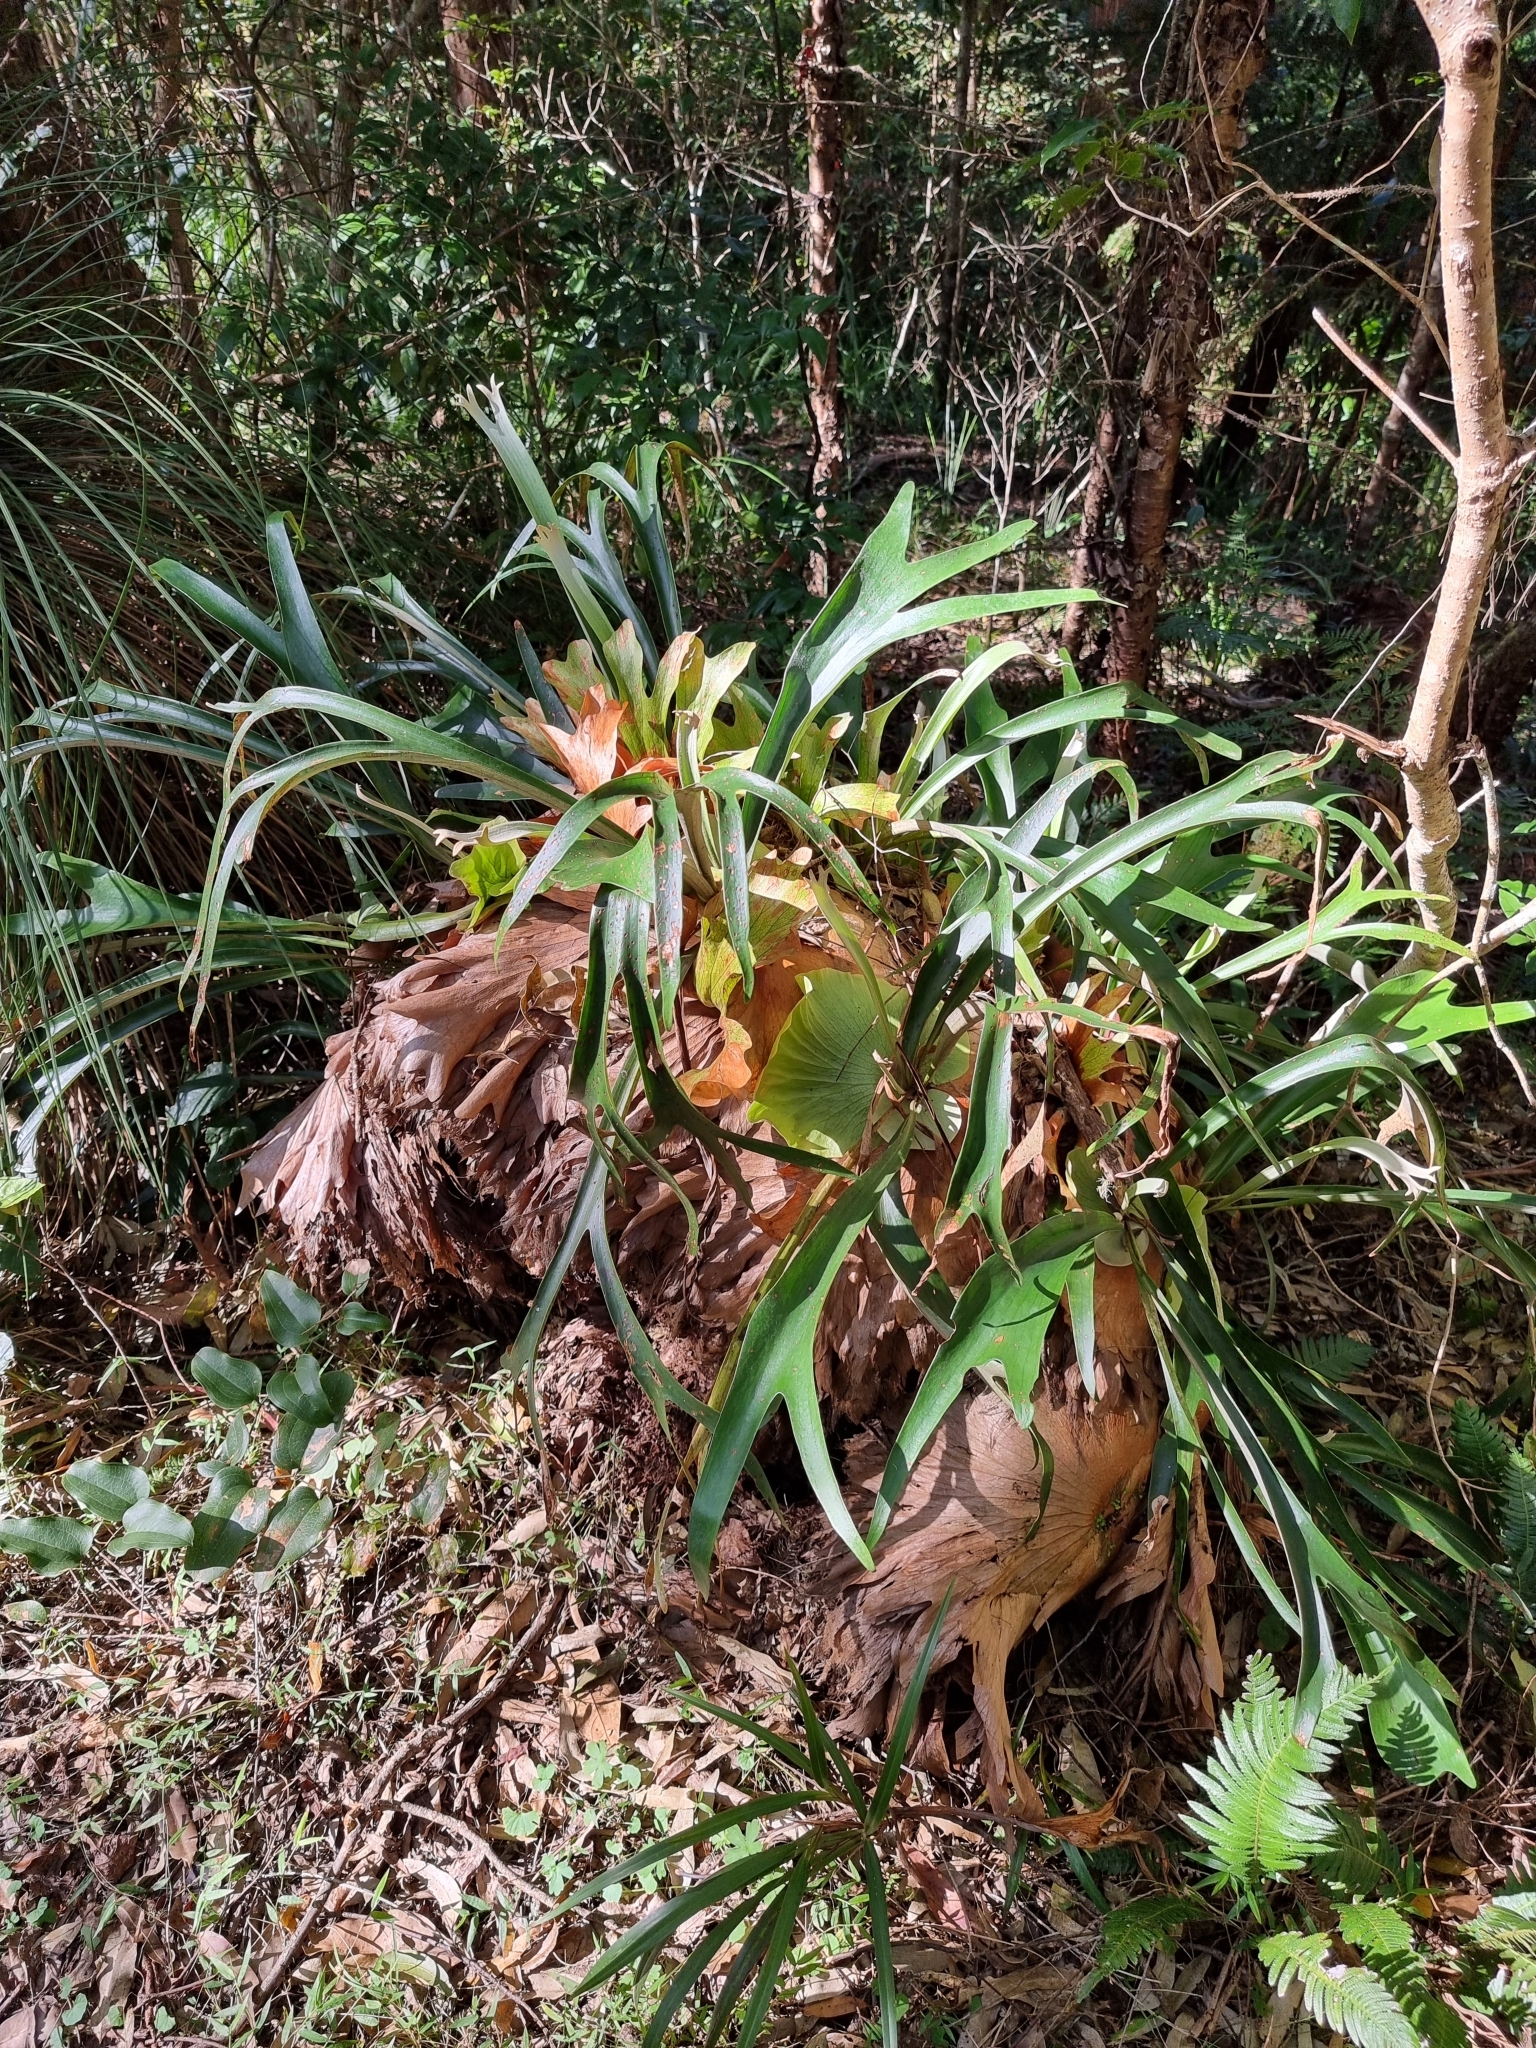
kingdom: Plantae
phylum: Tracheophyta
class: Polypodiopsida
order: Polypodiales
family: Polypodiaceae
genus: Platycerium
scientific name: Platycerium bifurcatum
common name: Elkhorn fern
